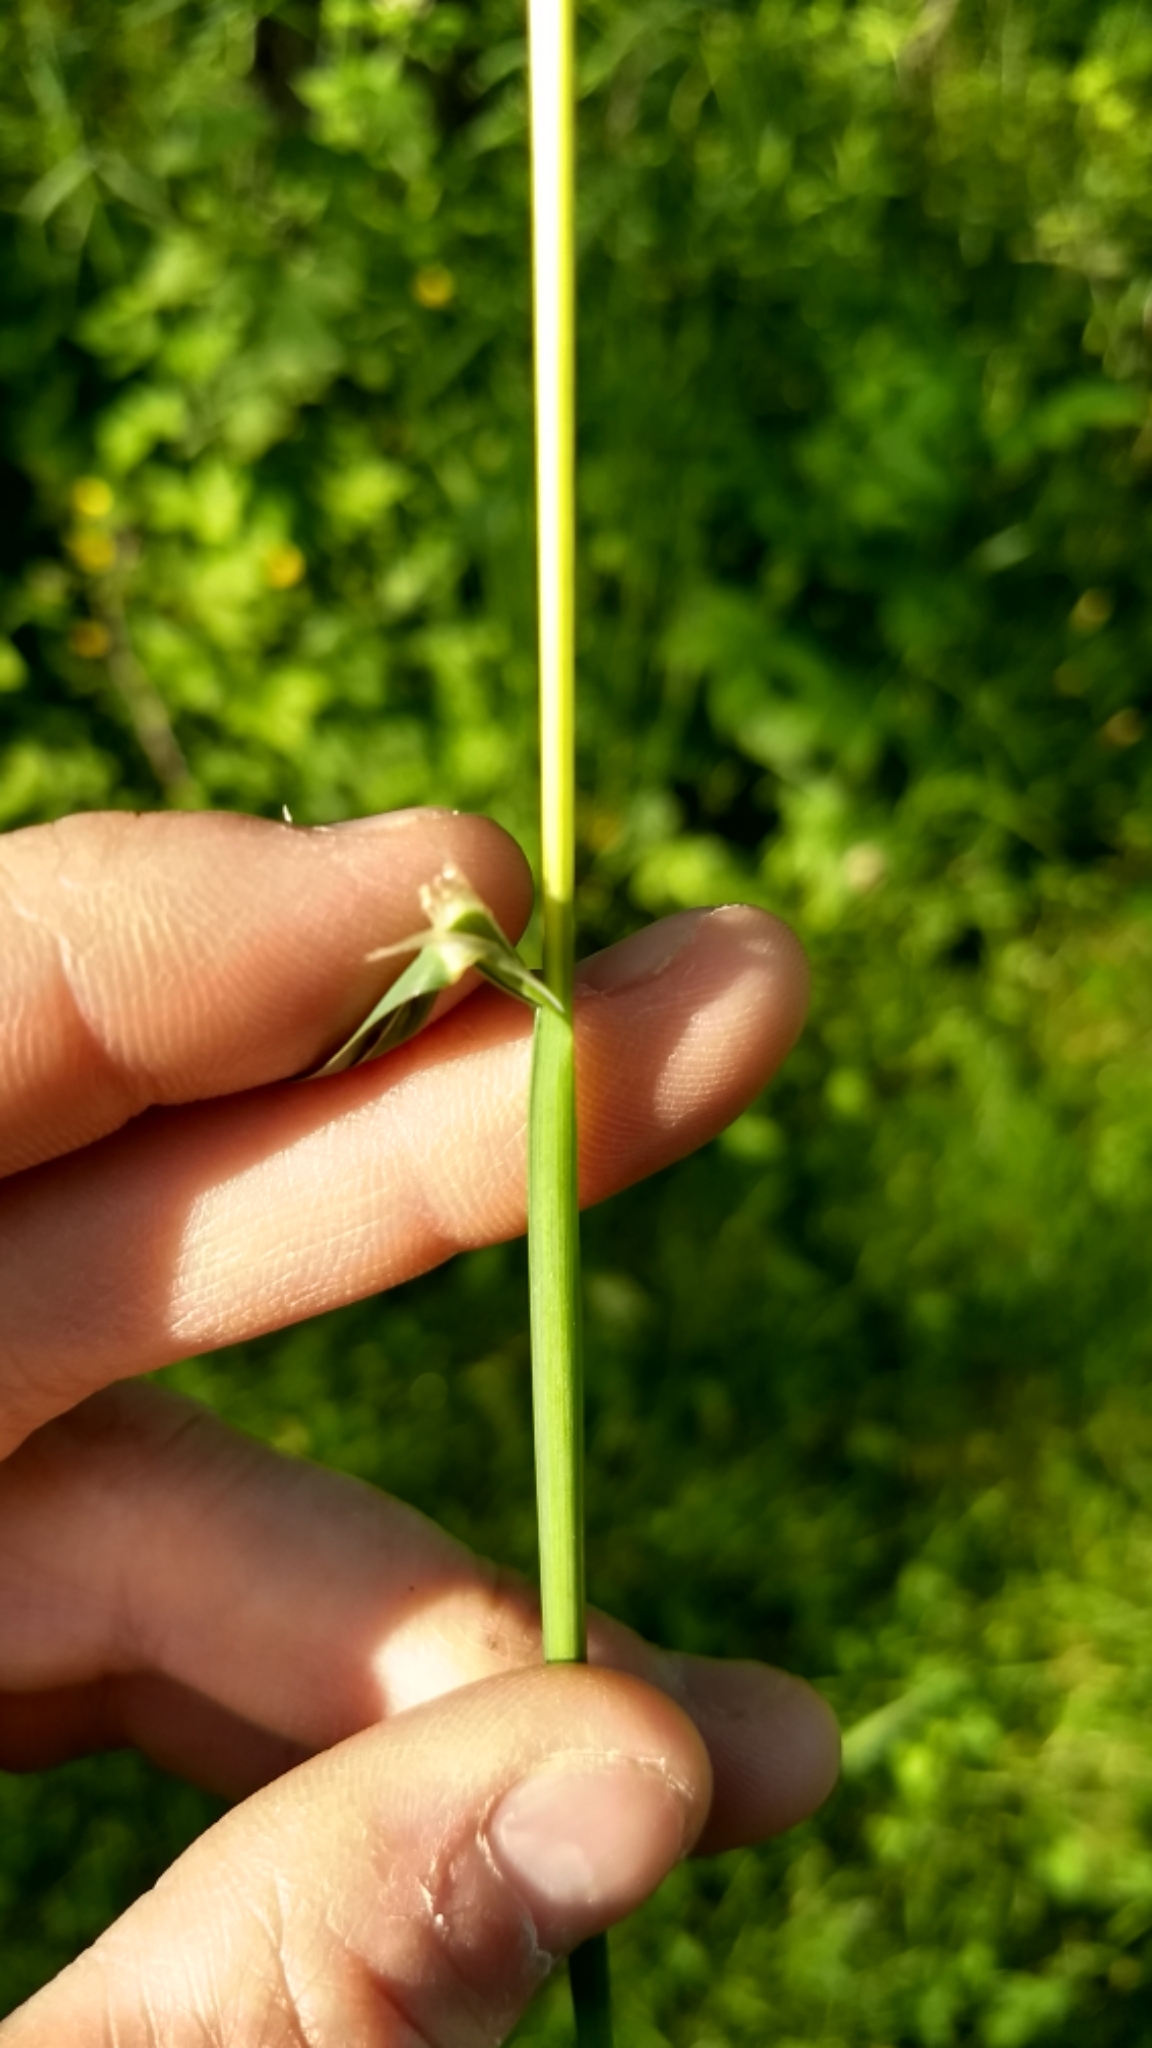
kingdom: Plantae
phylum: Tracheophyta
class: Liliopsida
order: Poales
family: Poaceae
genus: Dactylis
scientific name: Dactylis glomerata
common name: Orchardgrass
